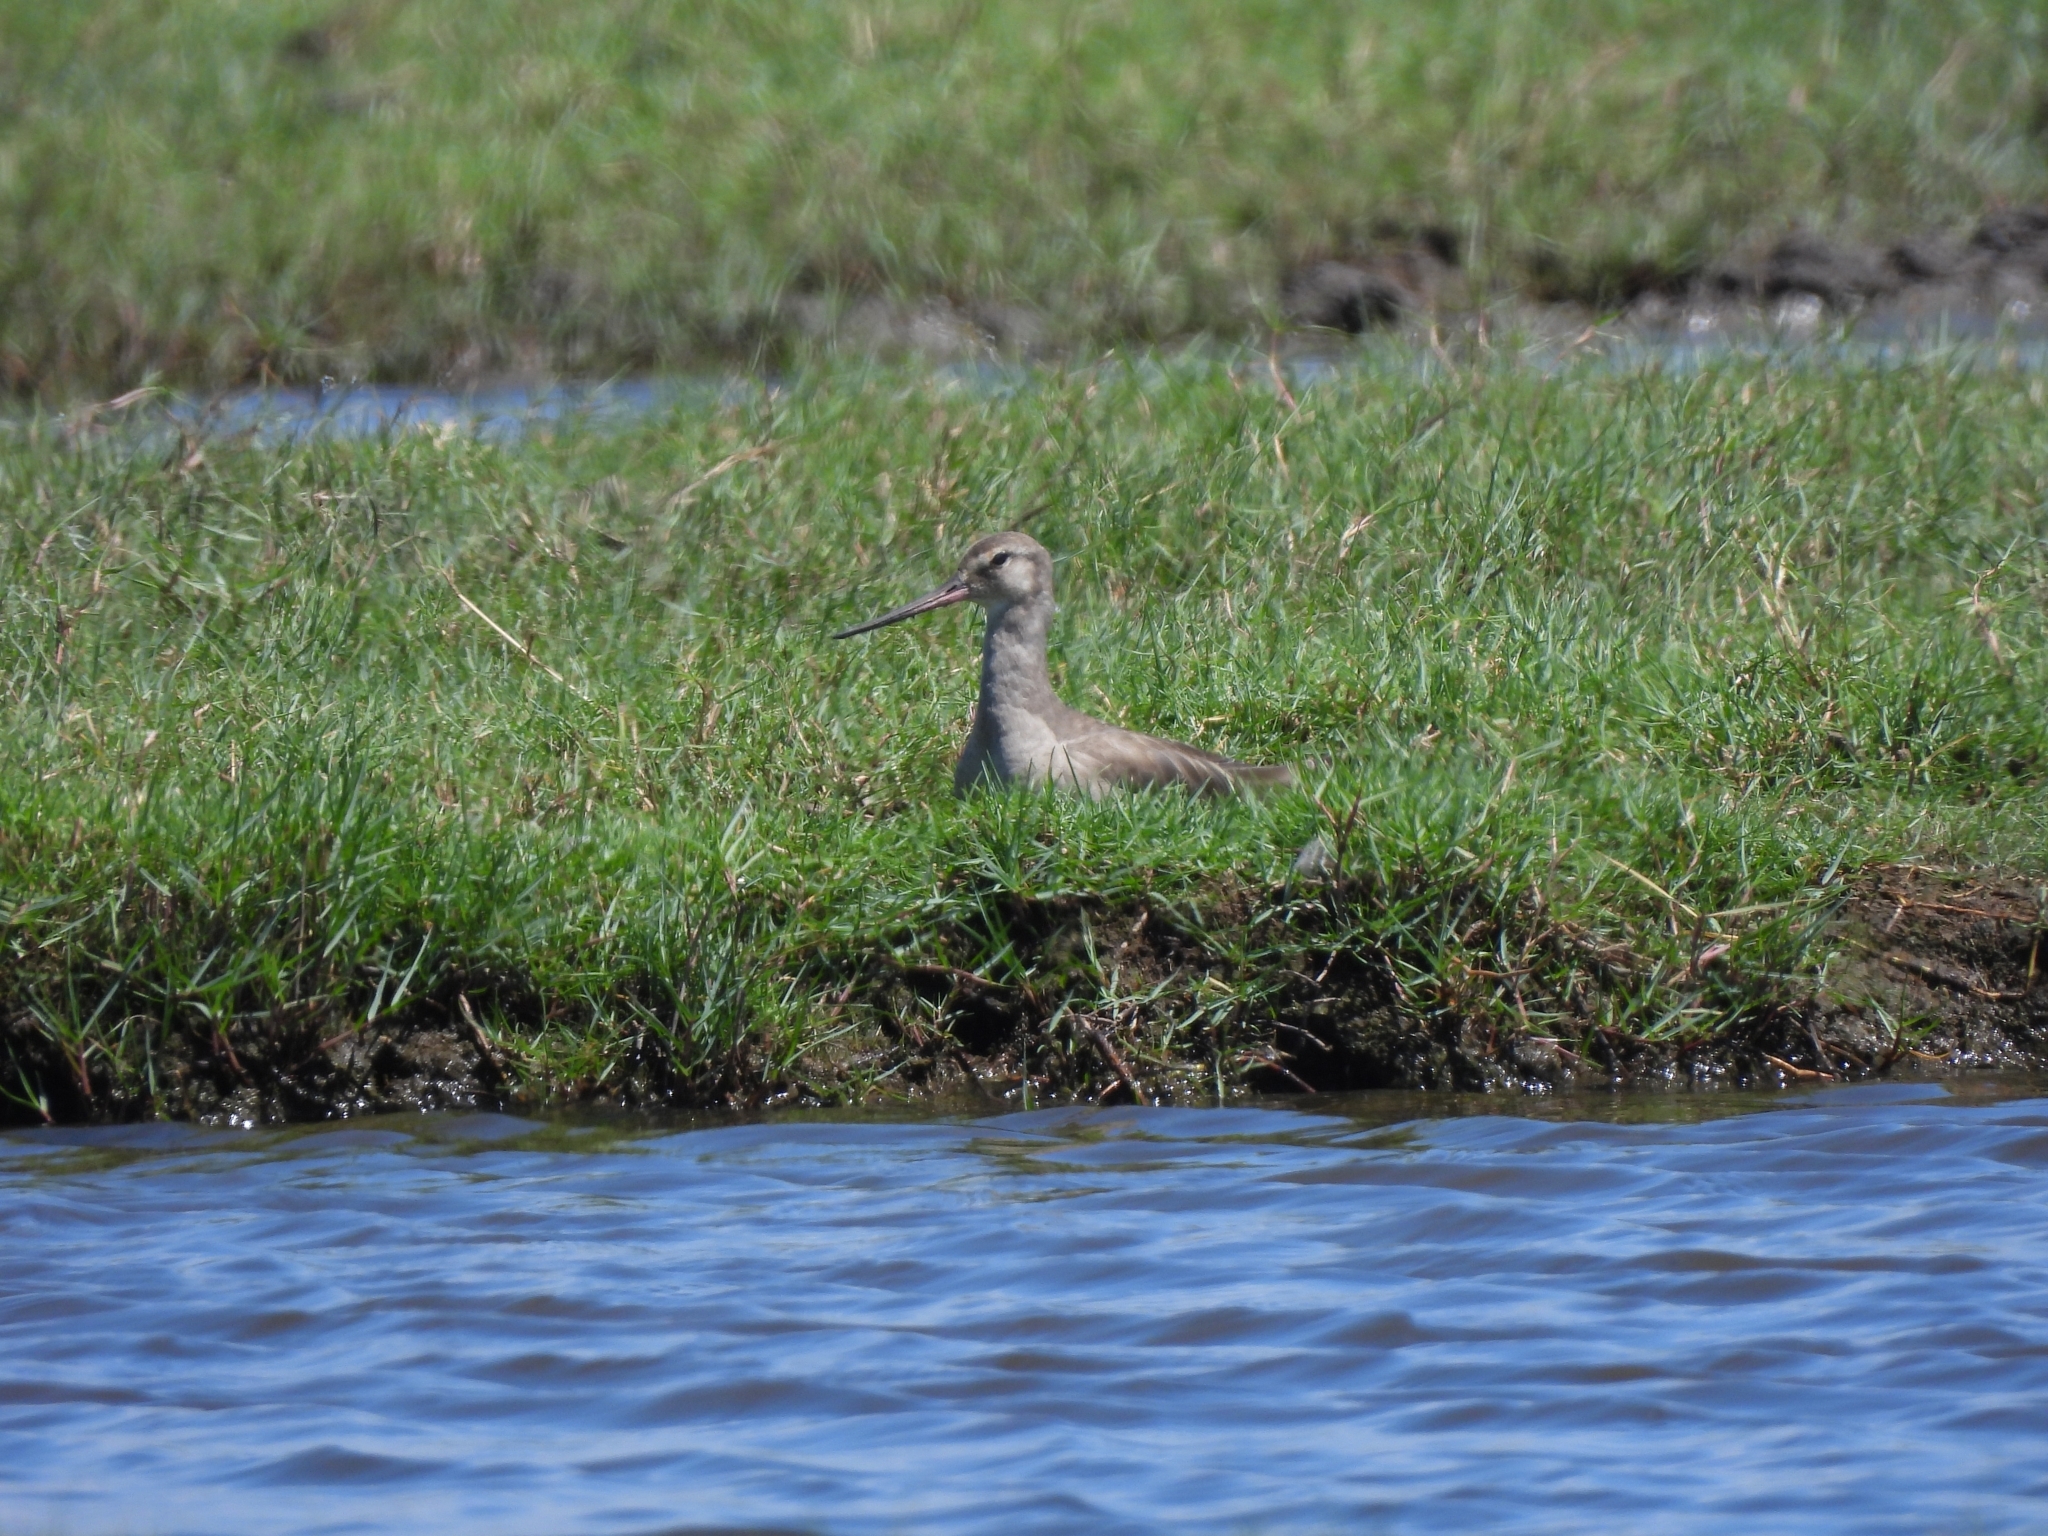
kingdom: Animalia
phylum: Chordata
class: Aves
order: Charadriiformes
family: Scolopacidae
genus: Limosa
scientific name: Limosa haemastica
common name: Hudsonian godwit
